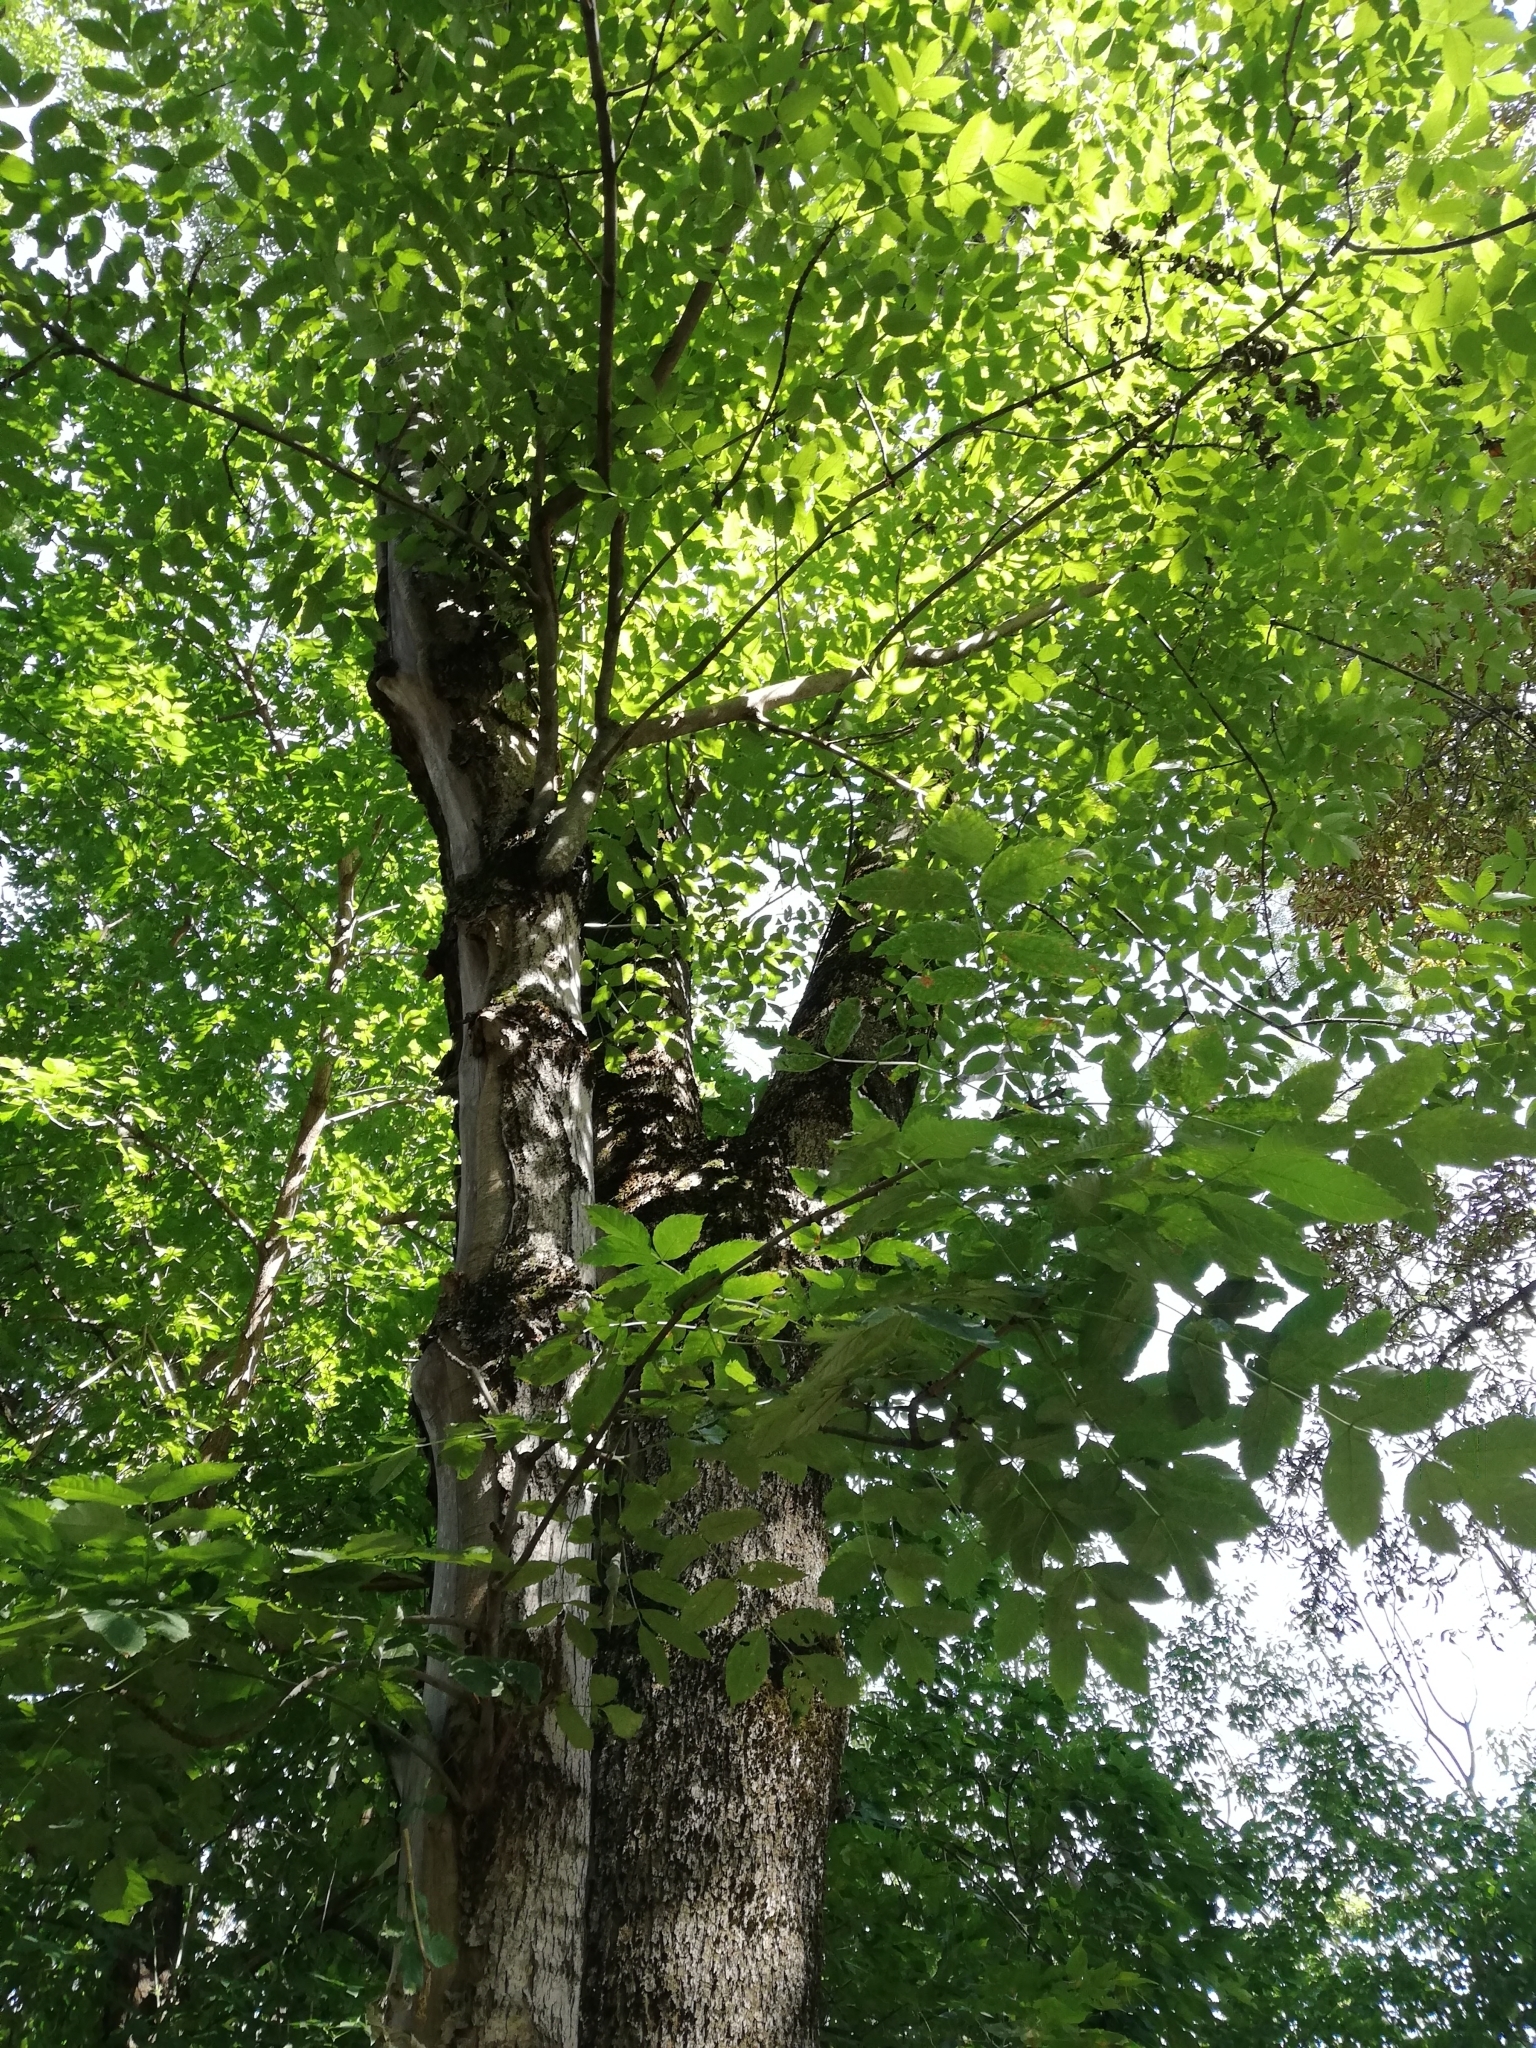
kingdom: Plantae
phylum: Tracheophyta
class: Magnoliopsida
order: Lamiales
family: Oleaceae
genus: Fraxinus
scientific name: Fraxinus excelsior
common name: European ash
